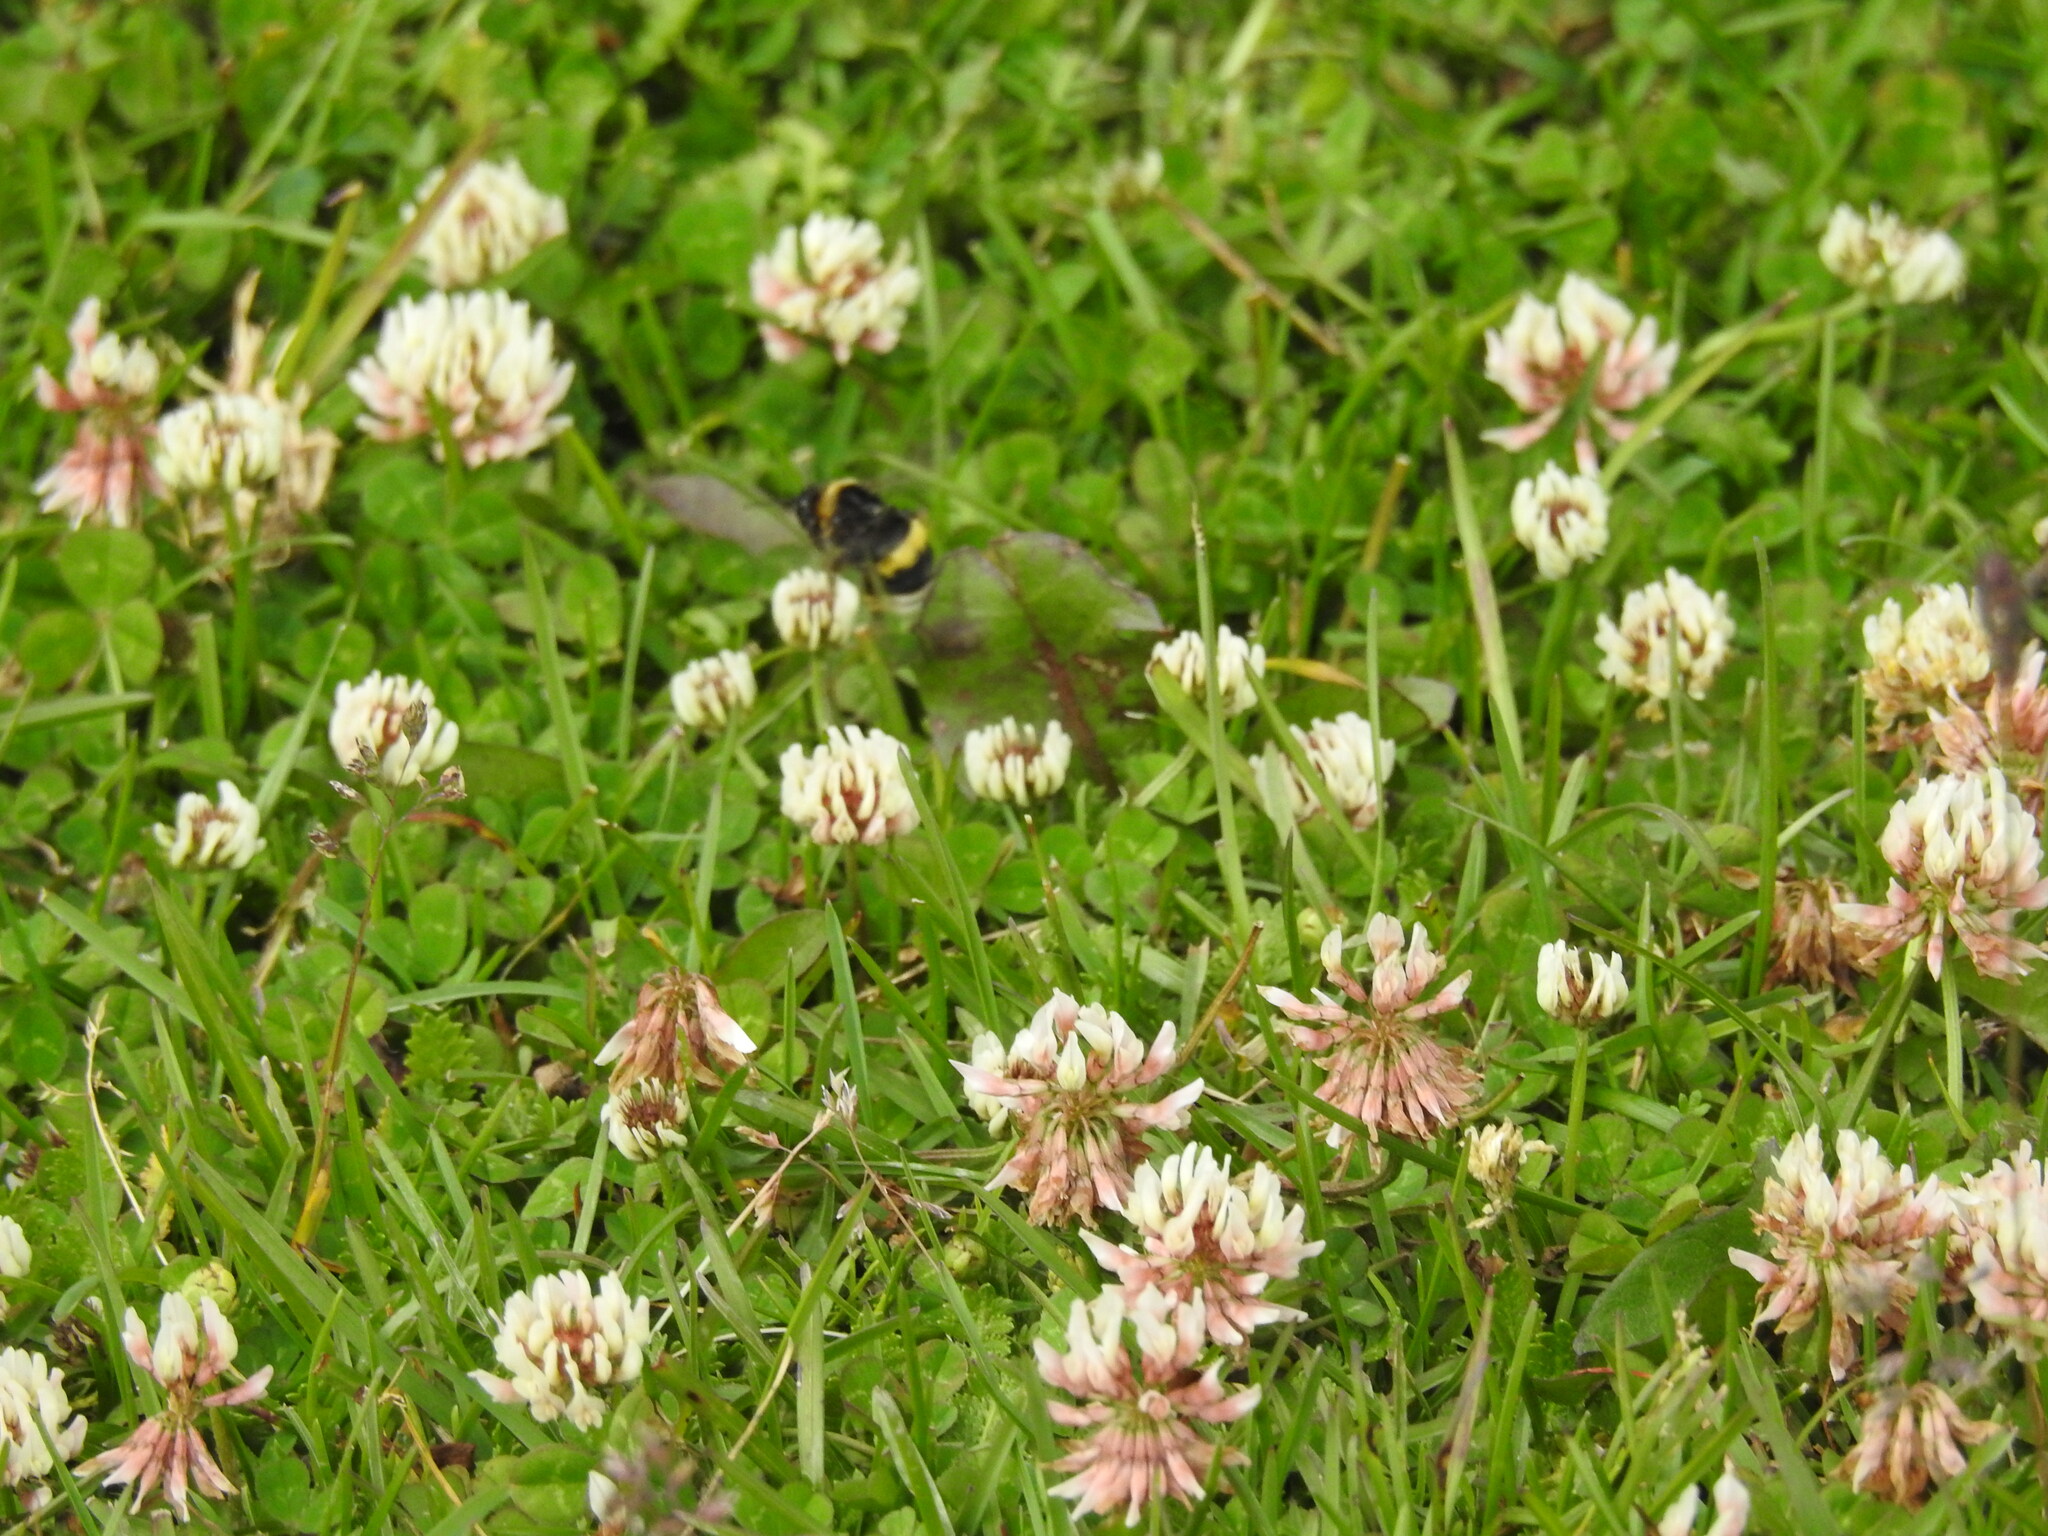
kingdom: Animalia
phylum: Arthropoda
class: Insecta
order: Hymenoptera
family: Apidae
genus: Bombus
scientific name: Bombus terrestris
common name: Buff-tailed bumblebee
